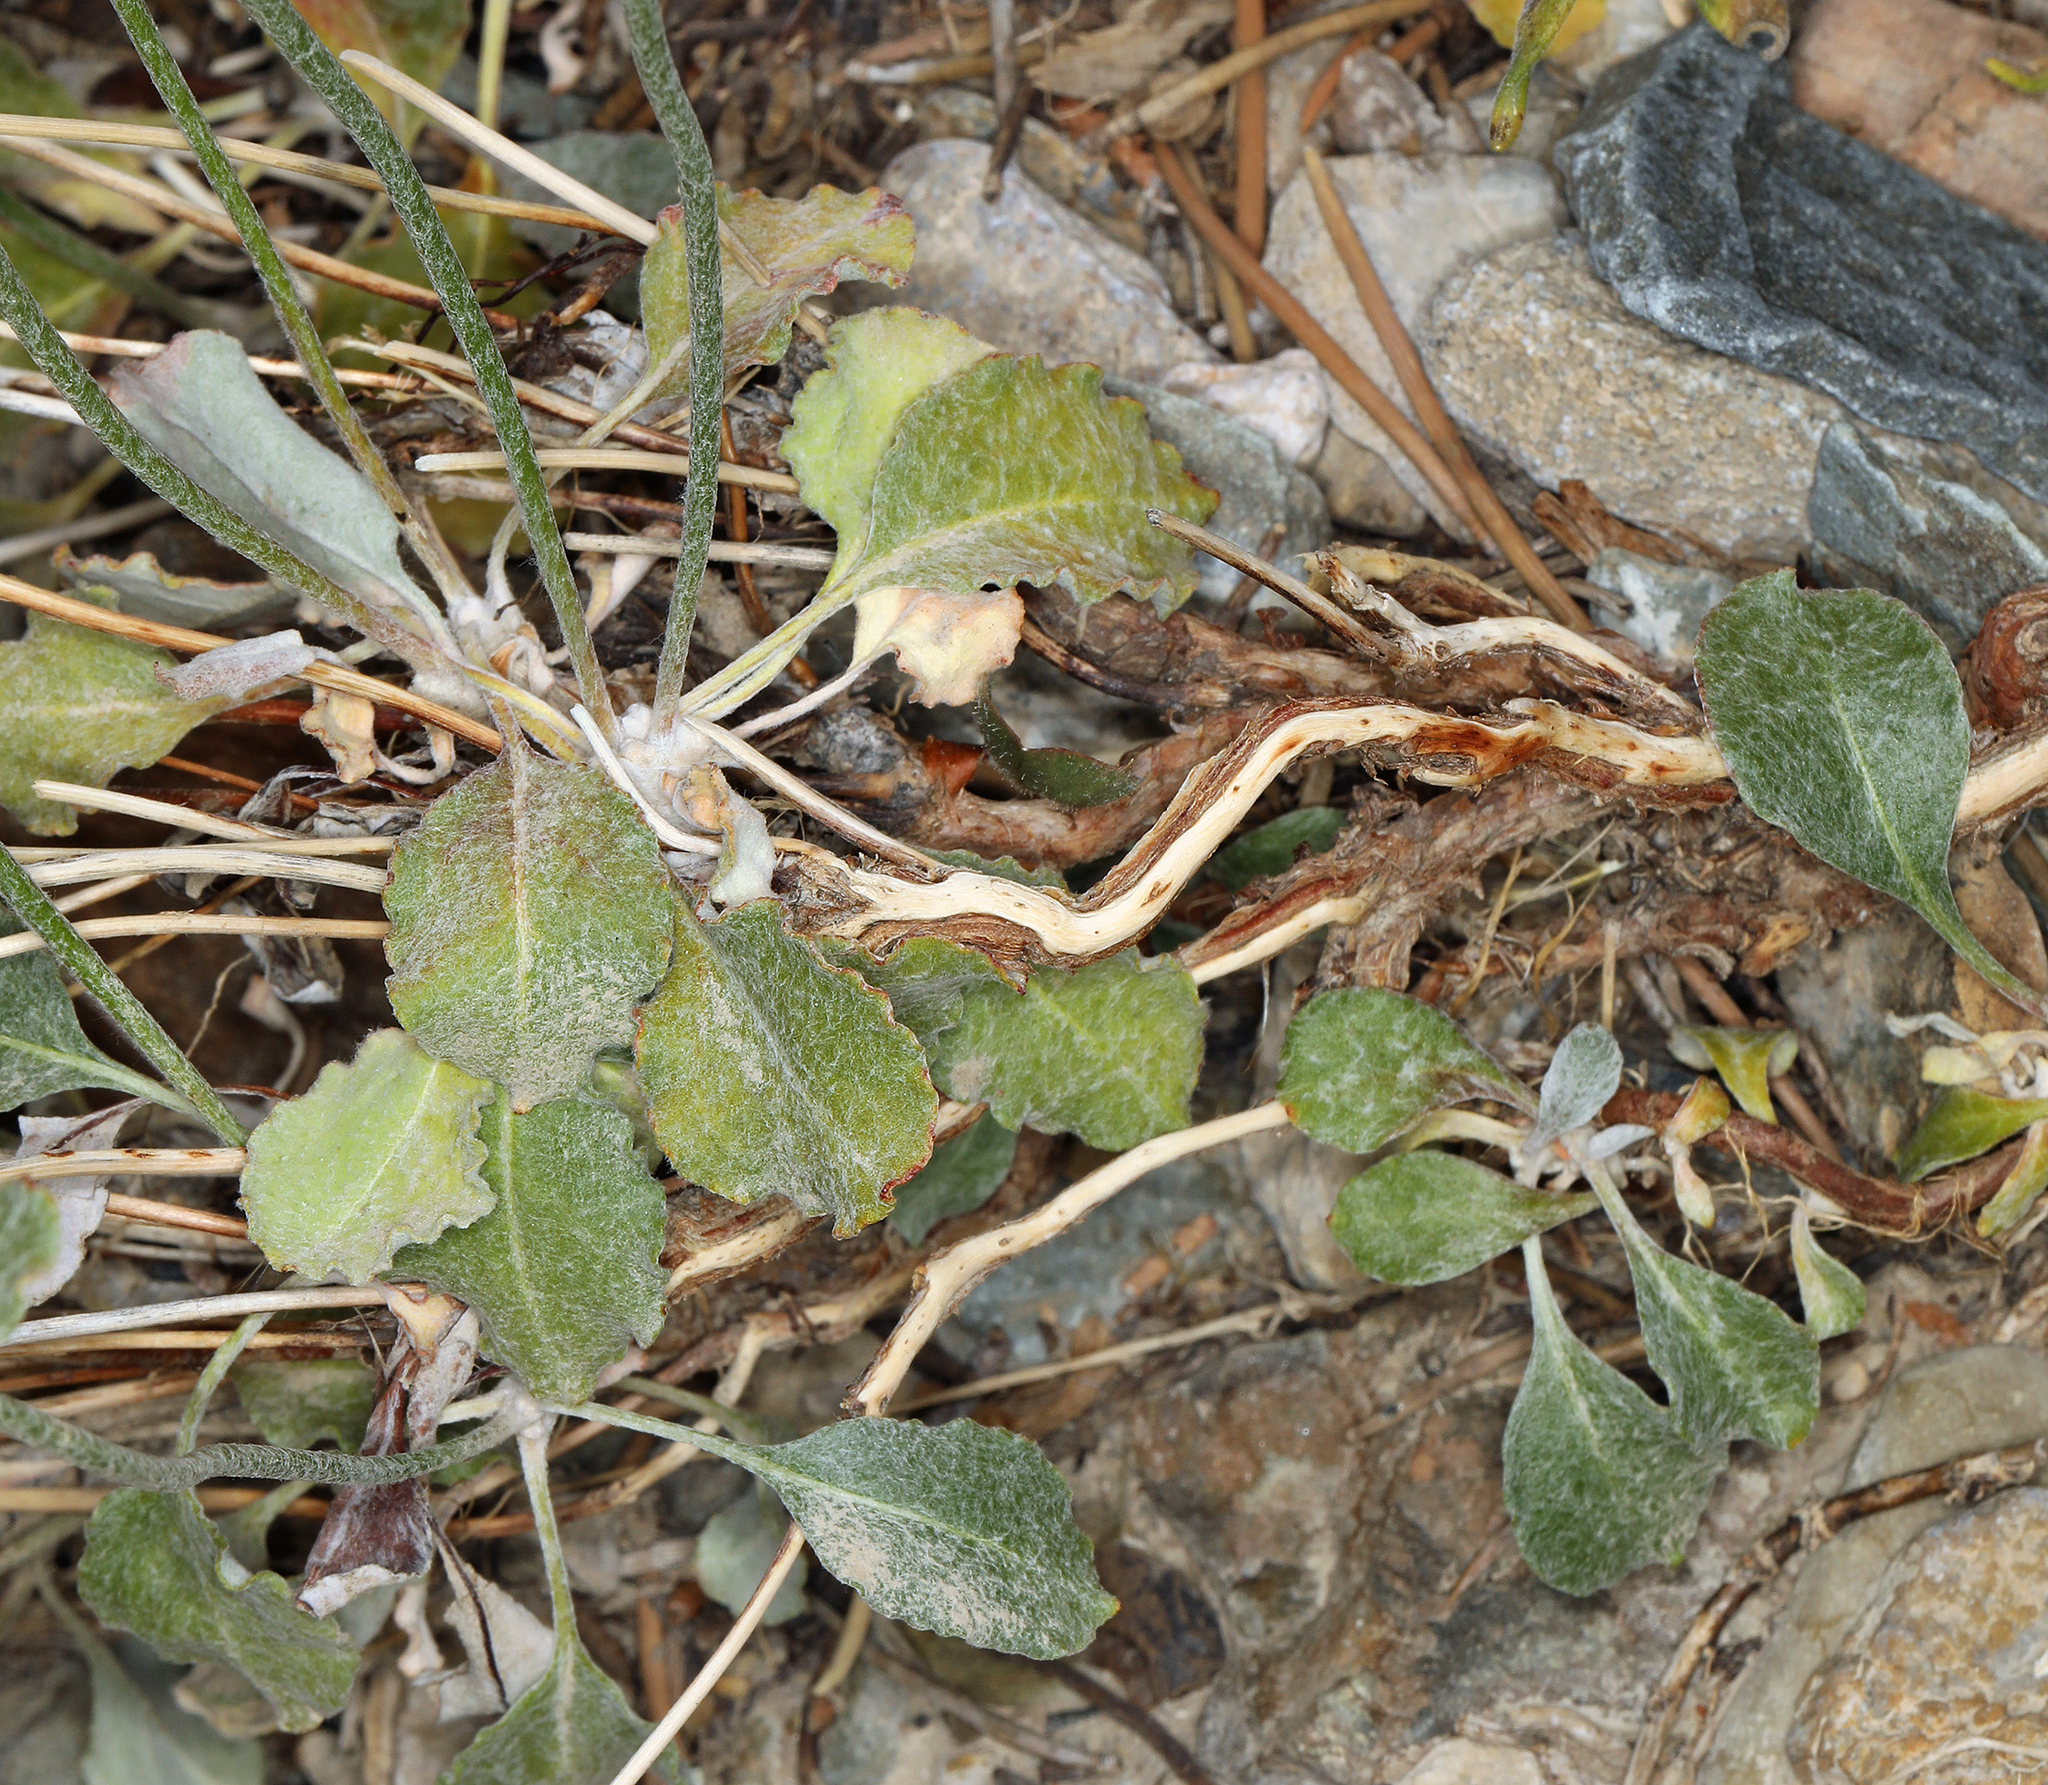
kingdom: Plantae
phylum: Tracheophyta
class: Magnoliopsida
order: Caryophyllales
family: Polygonaceae
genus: Eriogonum
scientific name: Eriogonum panamintense
